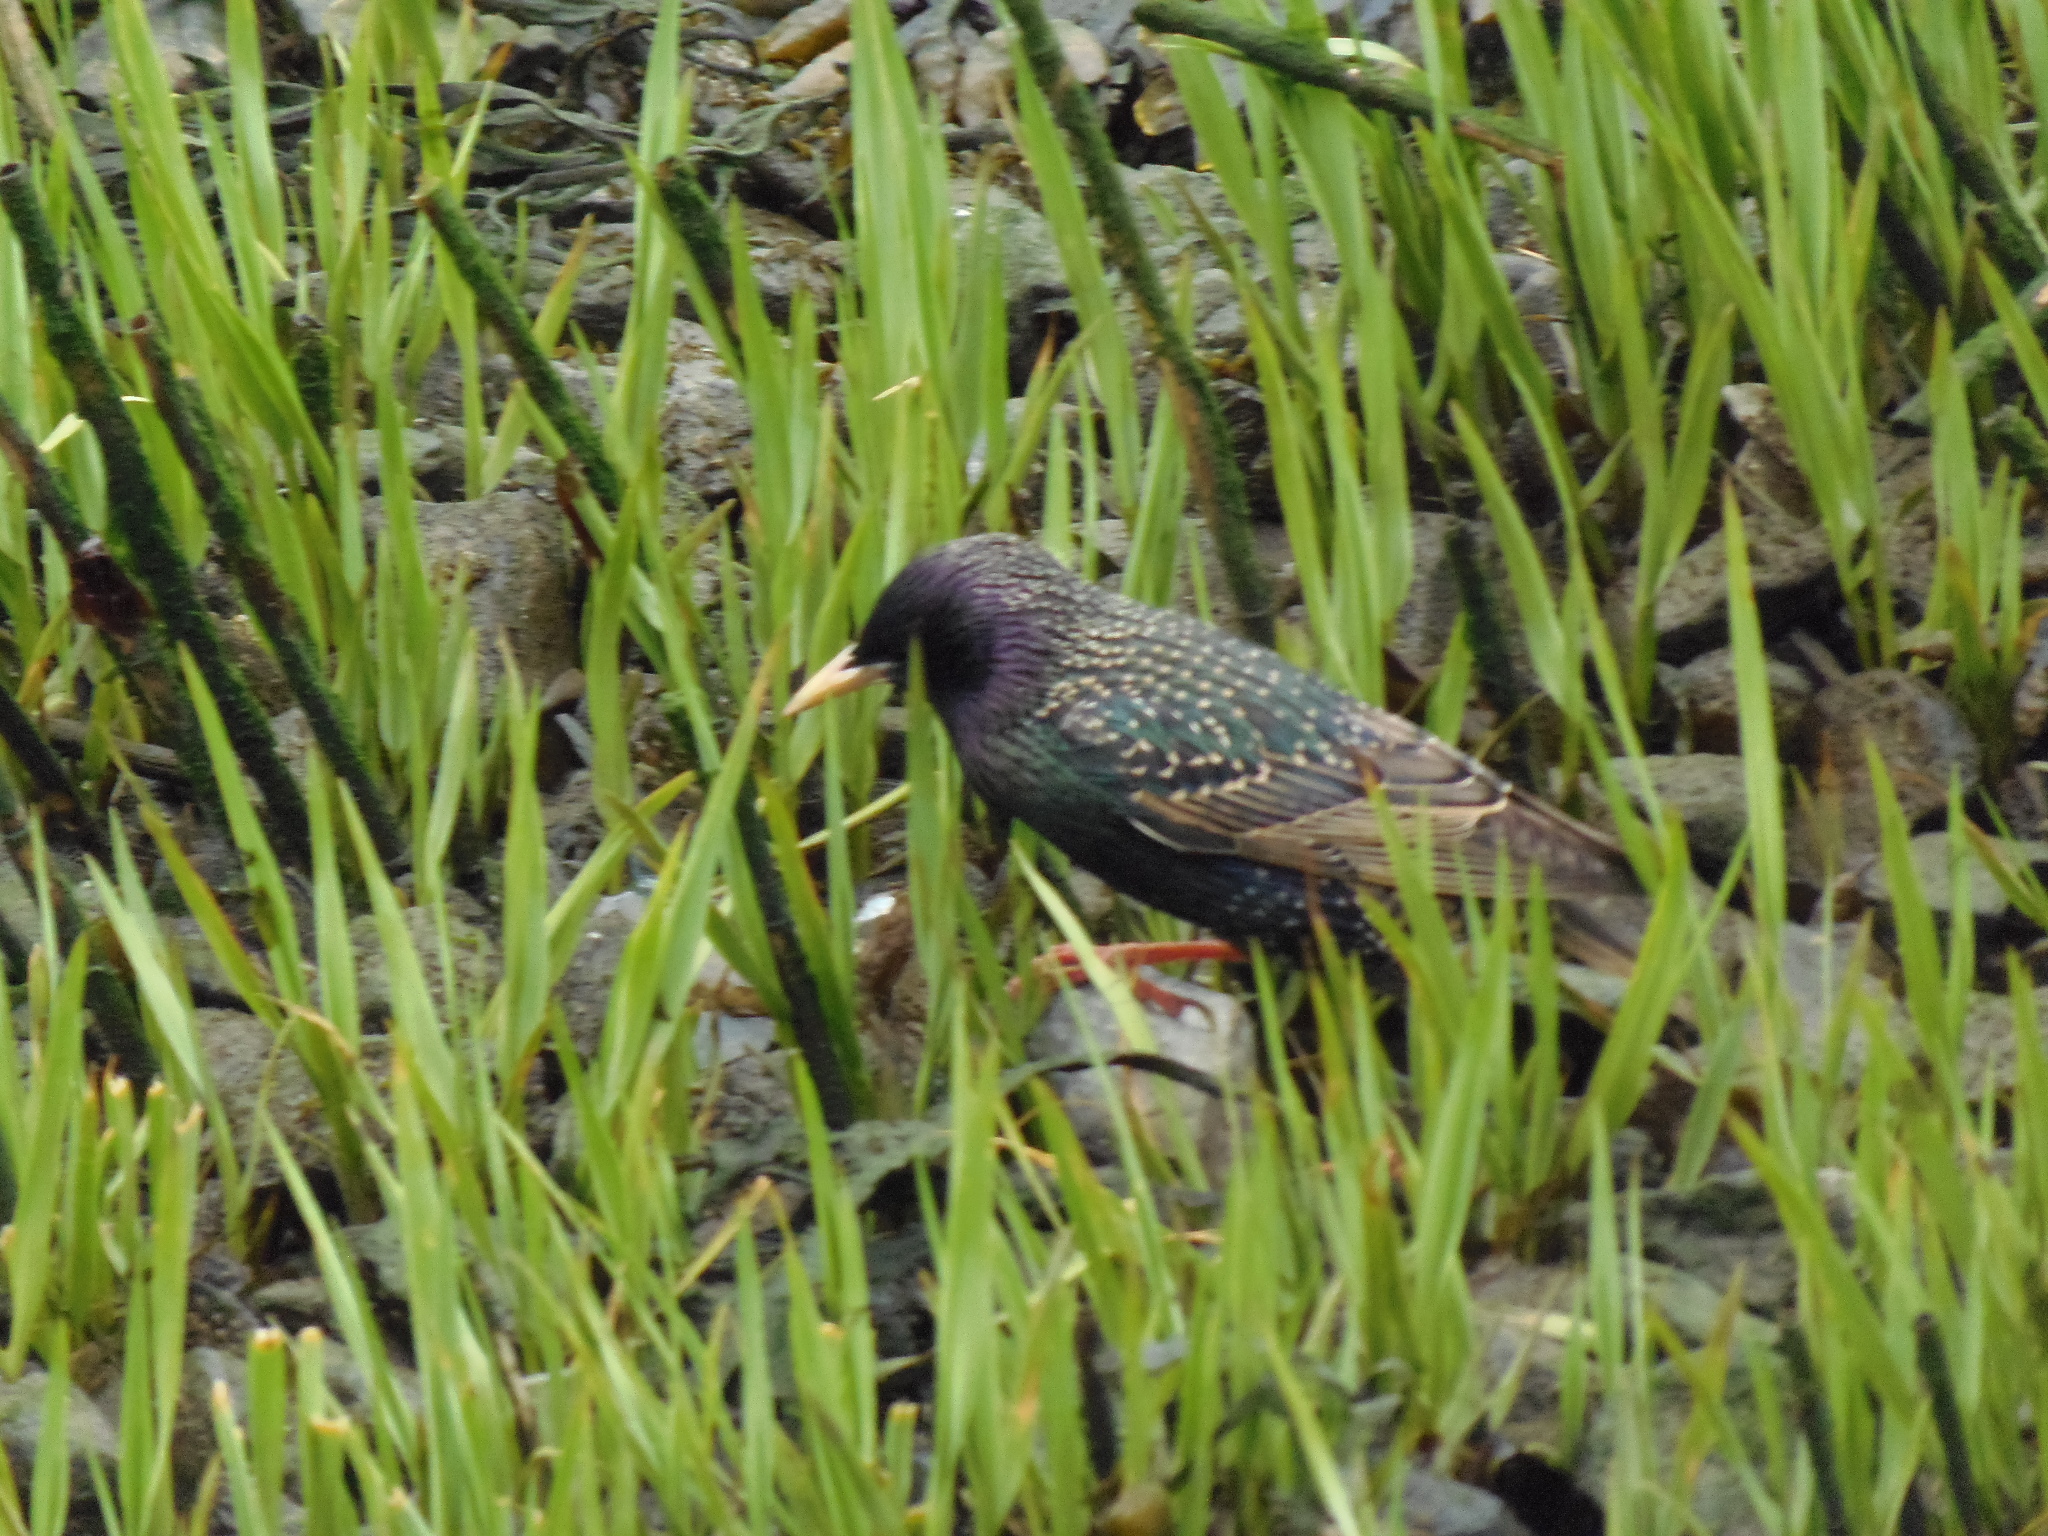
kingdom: Animalia
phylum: Chordata
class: Aves
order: Passeriformes
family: Sturnidae
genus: Sturnus
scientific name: Sturnus vulgaris
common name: Common starling
